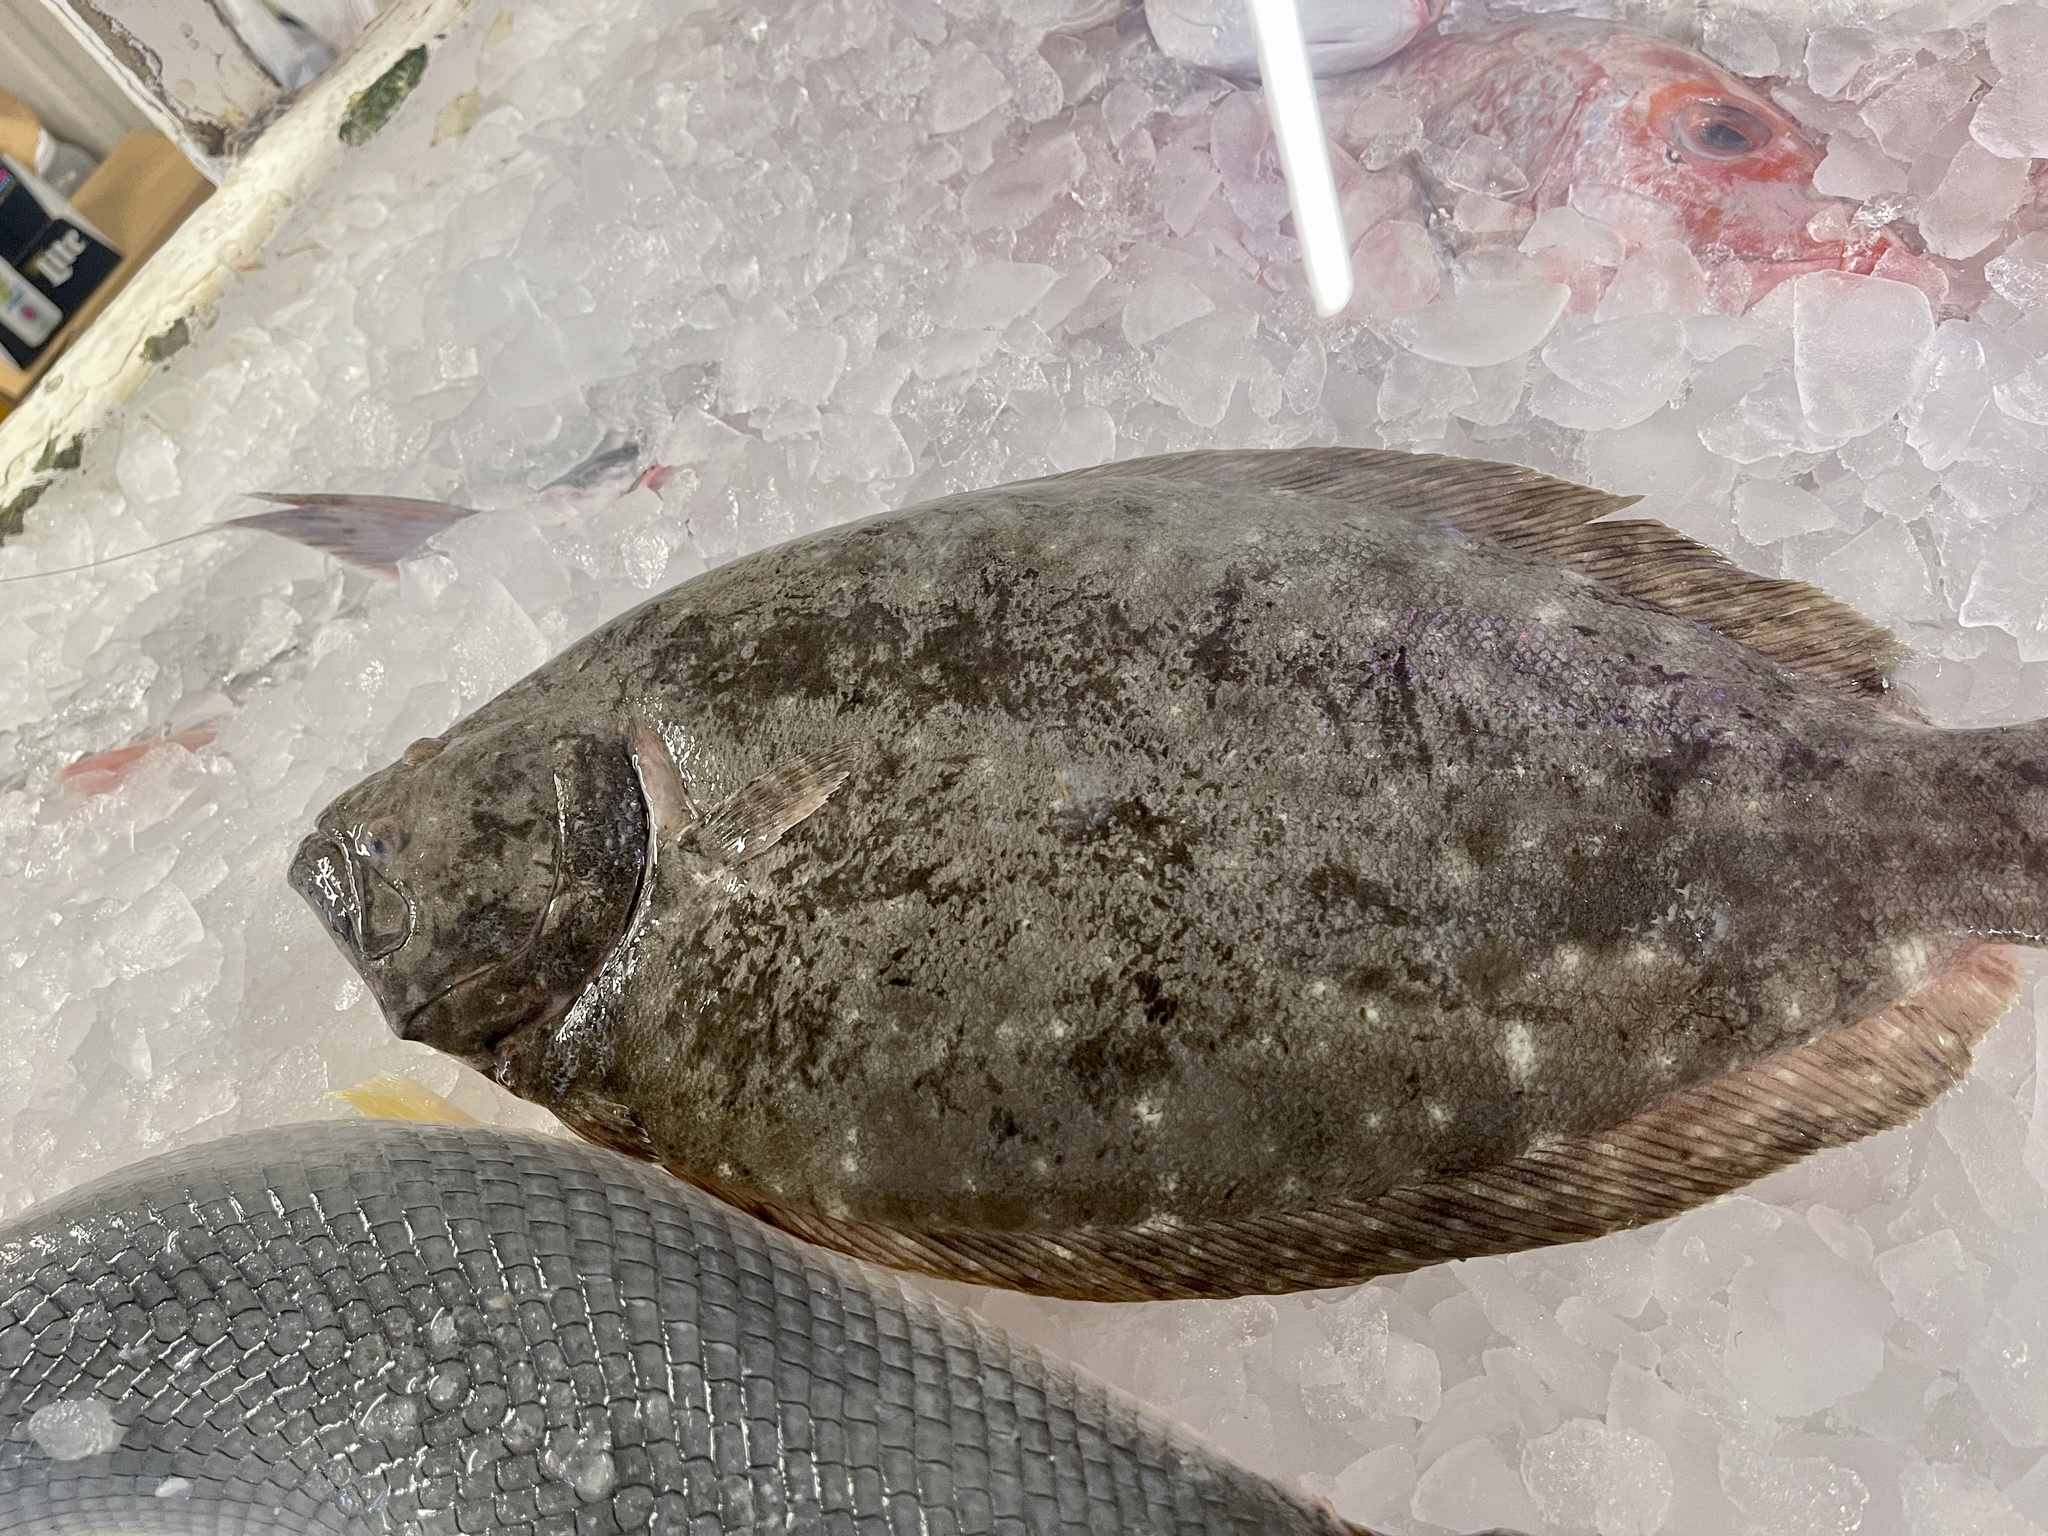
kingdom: Animalia
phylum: Chordata
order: Pleuronectiformes
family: Paralichthyidae
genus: Paralichthys
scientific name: Paralichthys lethostigma
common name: Southern flounder
